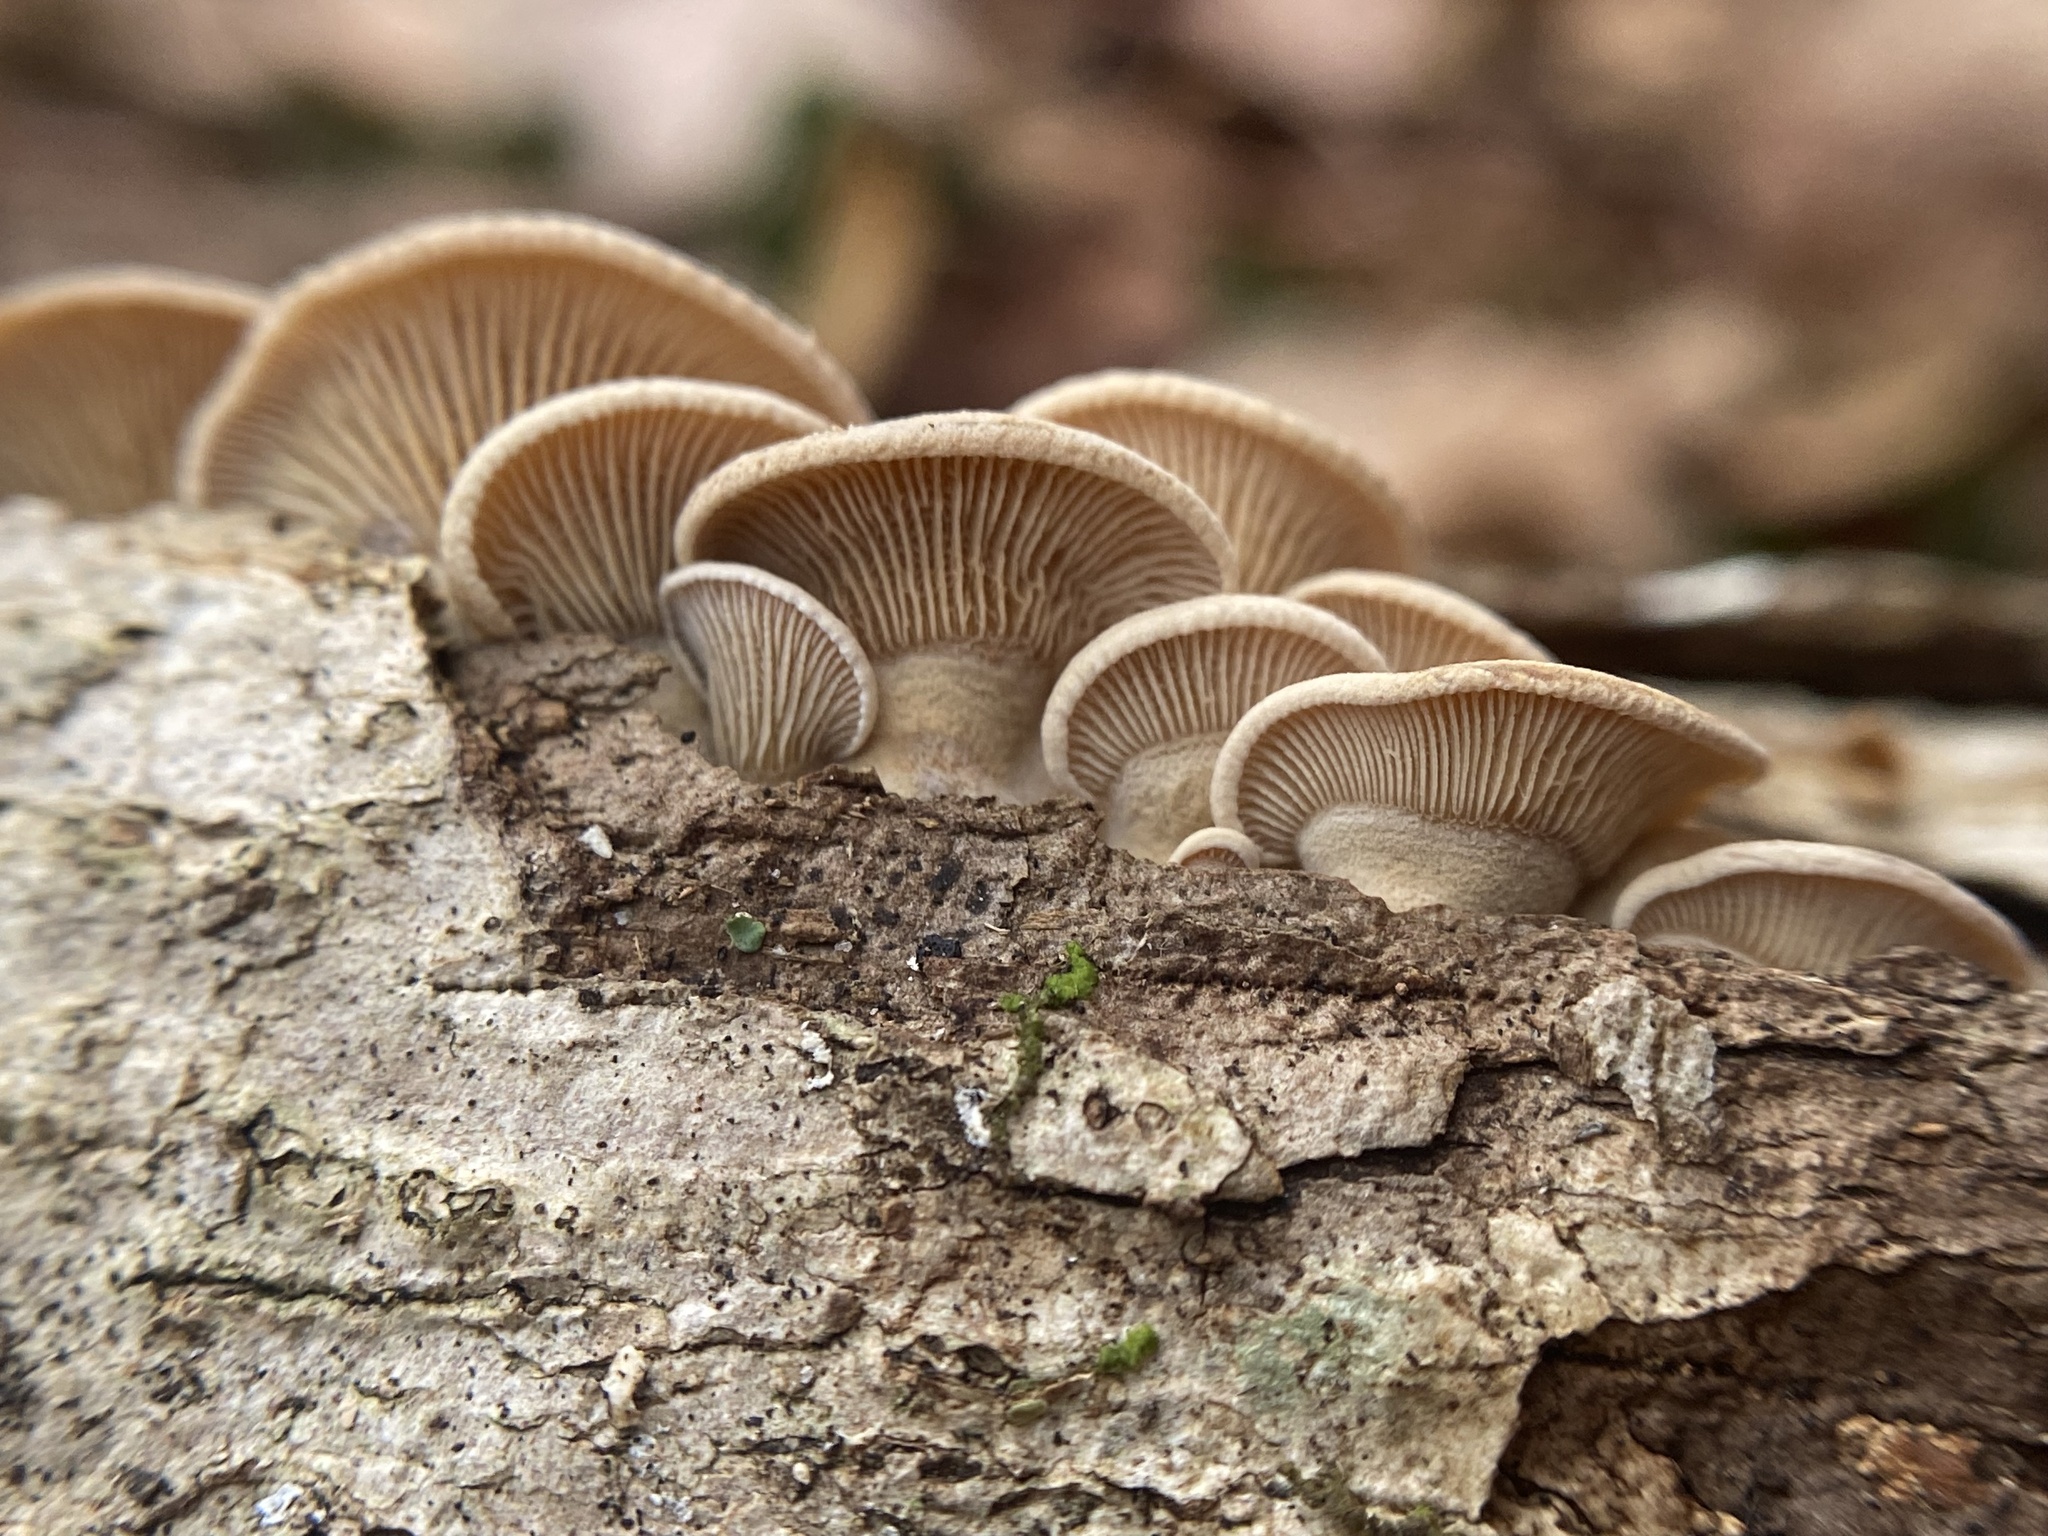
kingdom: Fungi
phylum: Basidiomycota
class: Agaricomycetes
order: Agaricales
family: Mycenaceae
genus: Panellus
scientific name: Panellus stipticus
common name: Bitter oysterling
